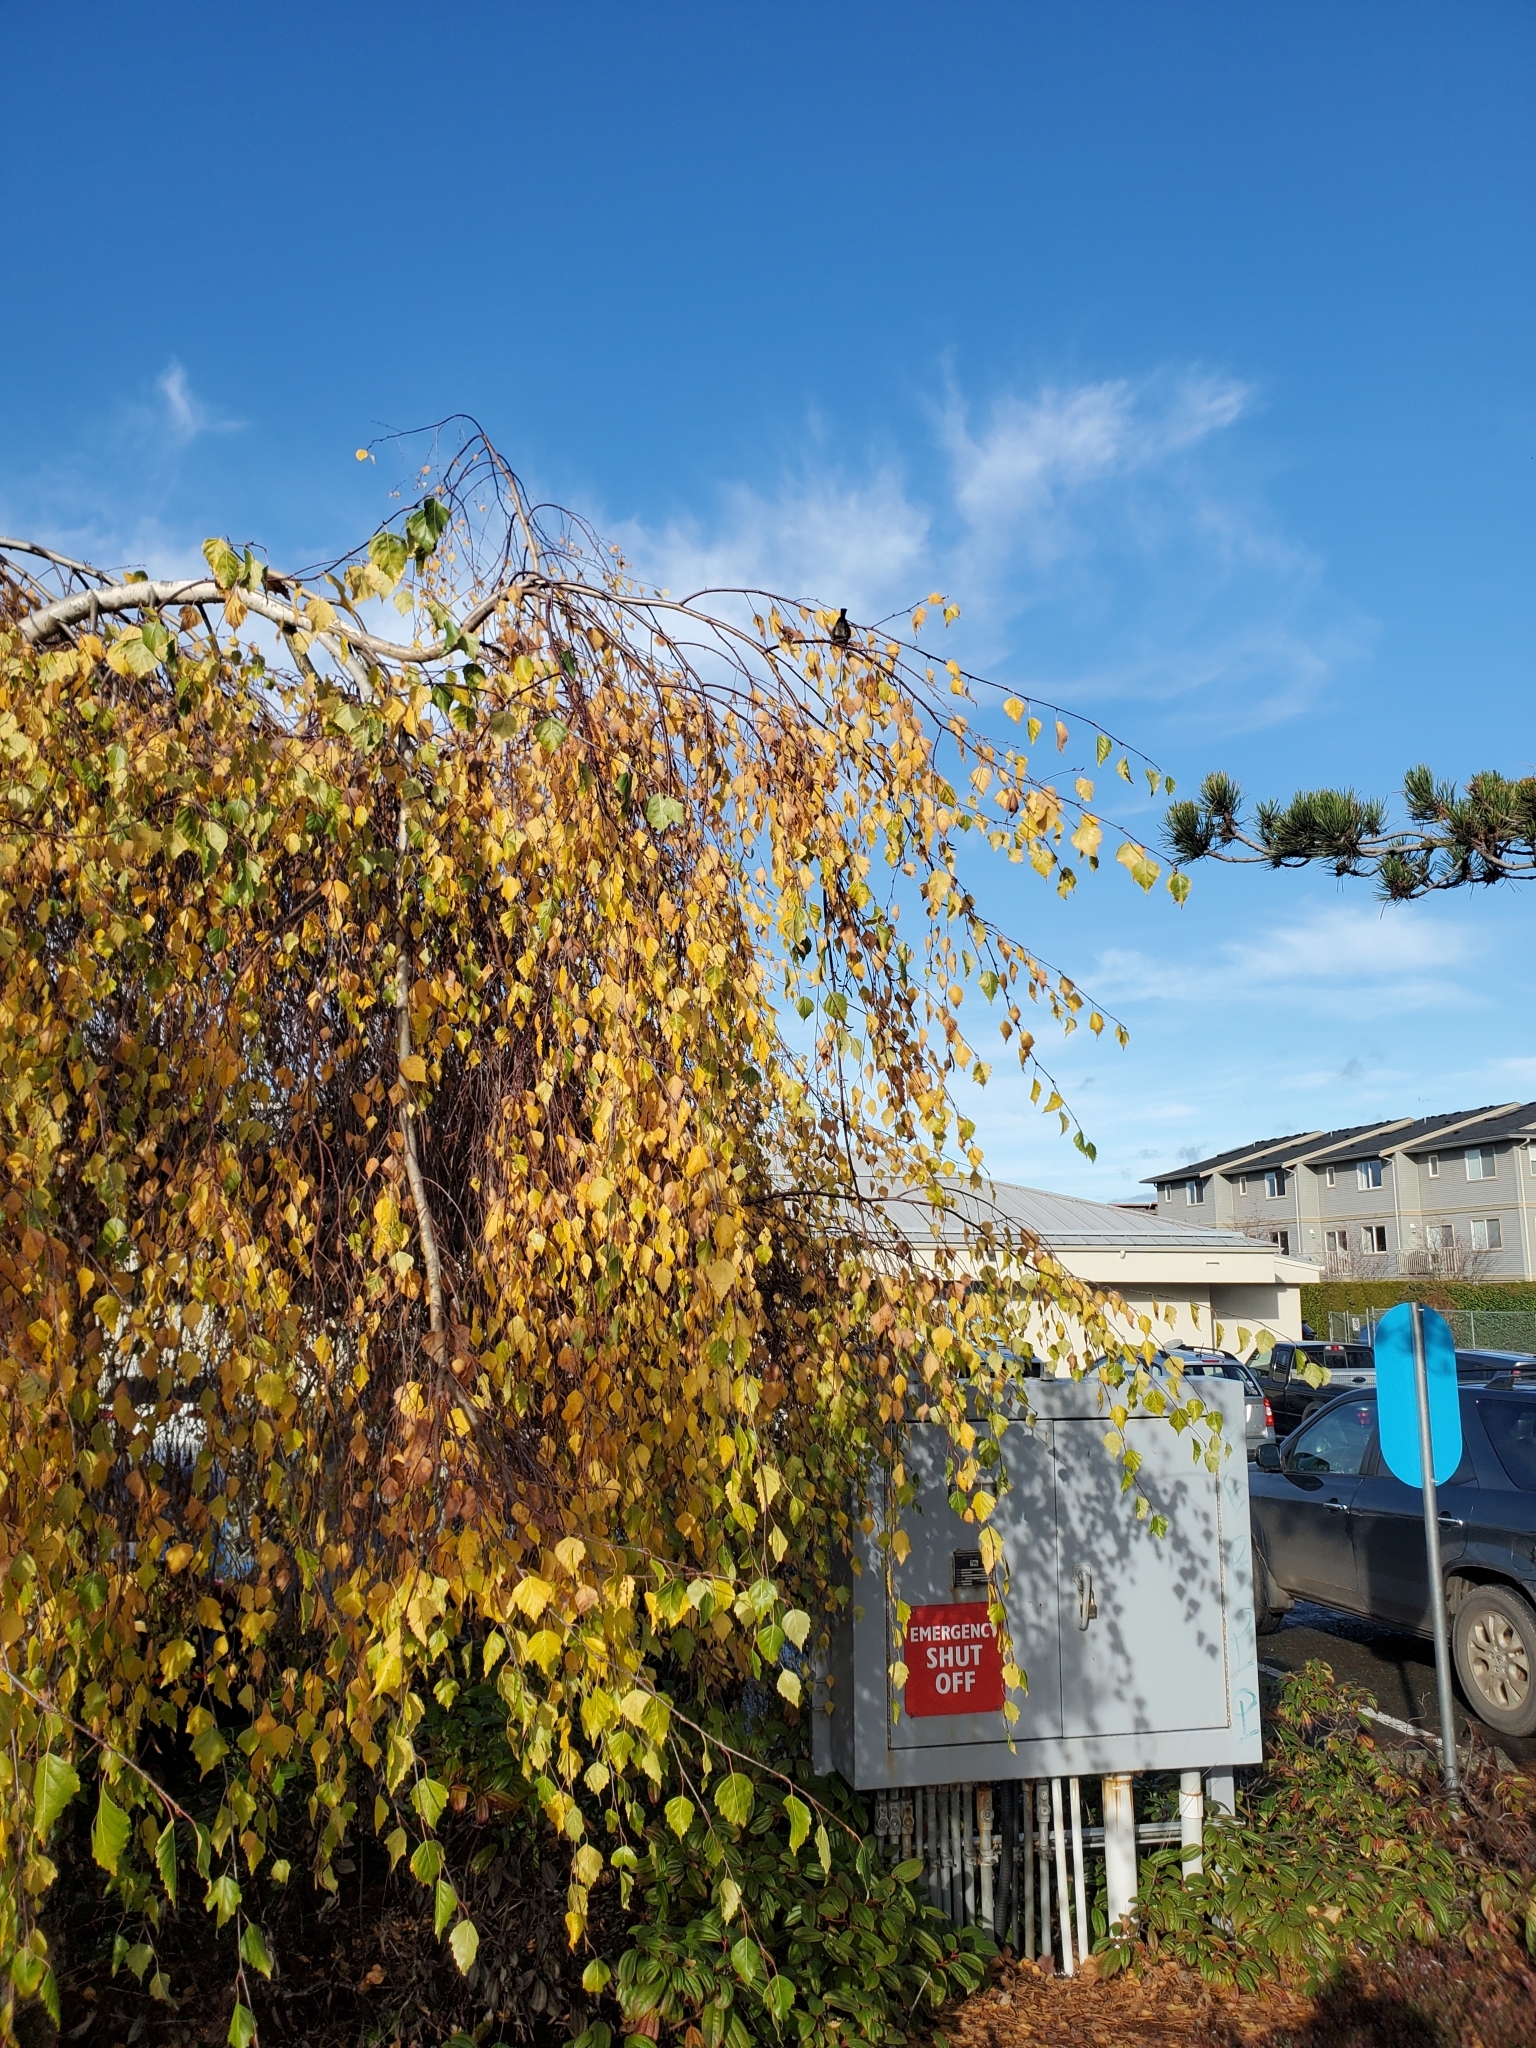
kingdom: Animalia
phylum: Chordata
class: Aves
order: Passeriformes
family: Aegithalidae
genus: Psaltriparus
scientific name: Psaltriparus minimus
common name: American bushtit
